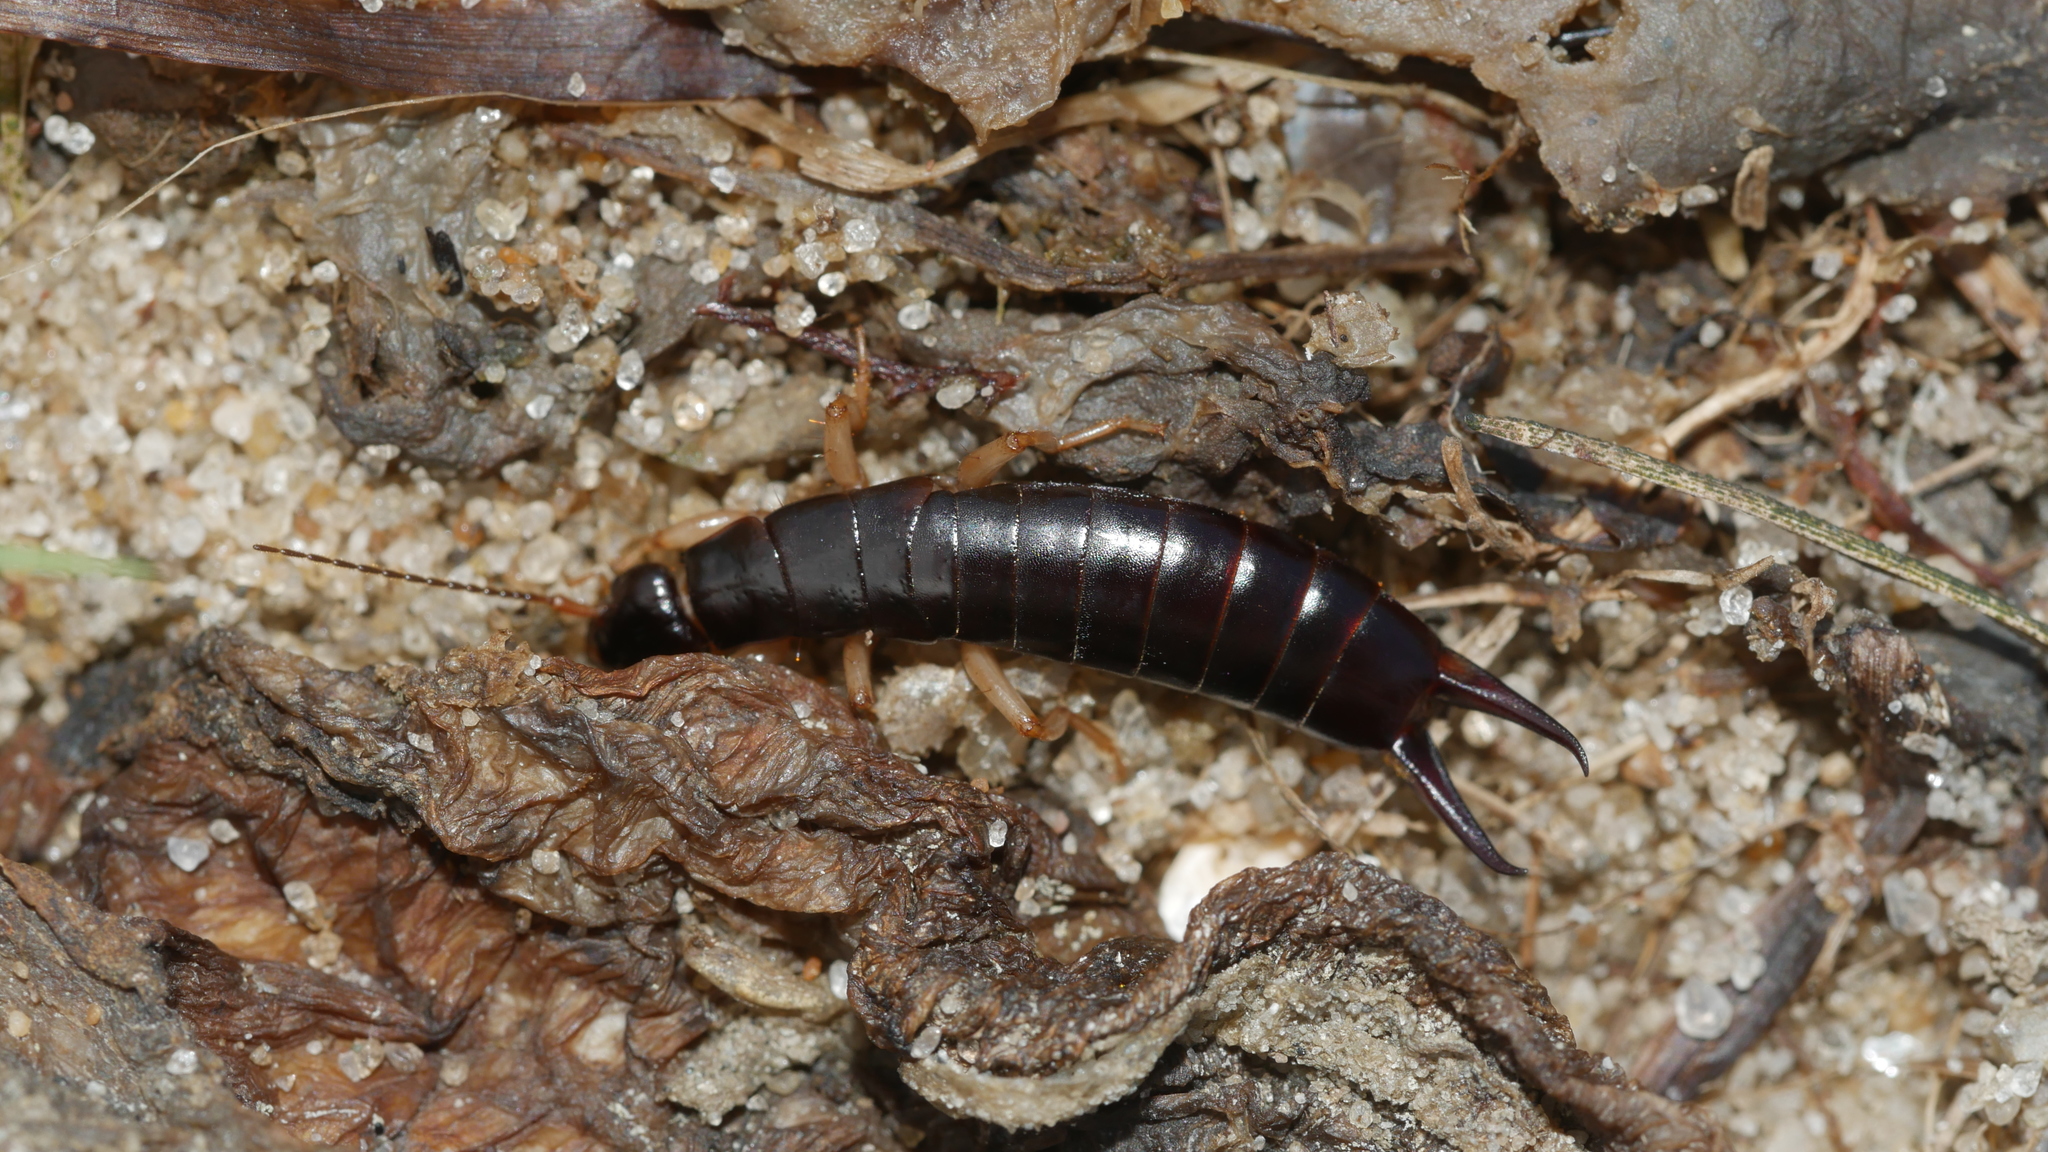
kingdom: Animalia
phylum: Arthropoda
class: Insecta
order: Dermaptera
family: Anisolabididae
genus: Anisolabis
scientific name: Anisolabis maritima
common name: Maritime earwig
